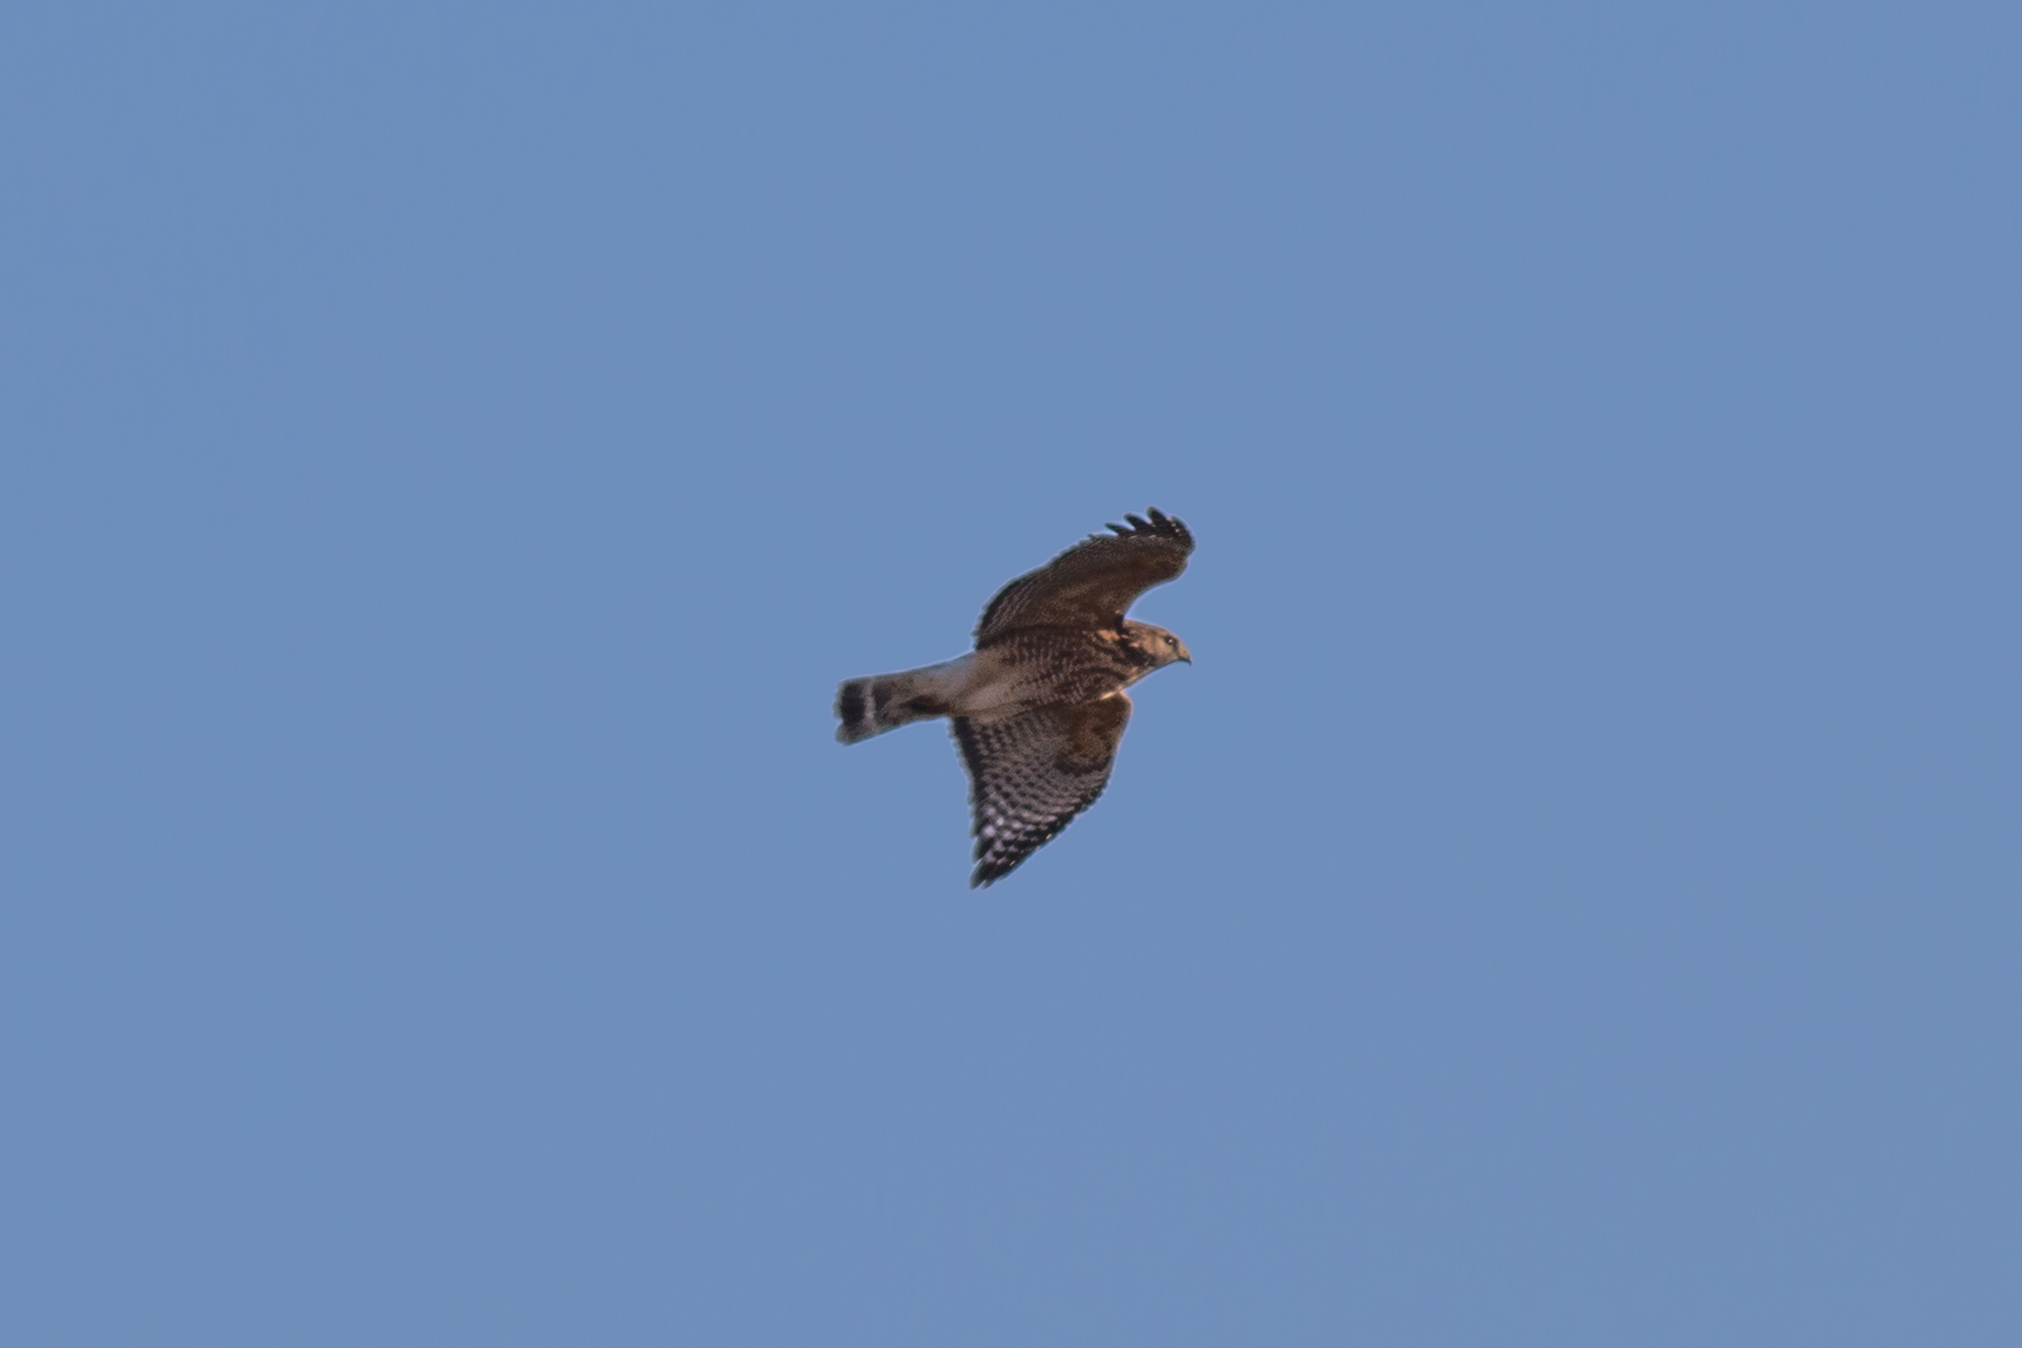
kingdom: Animalia
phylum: Chordata
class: Aves
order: Accipitriformes
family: Accipitridae
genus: Buteo
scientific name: Buteo lineatus
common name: Red-shouldered hawk
